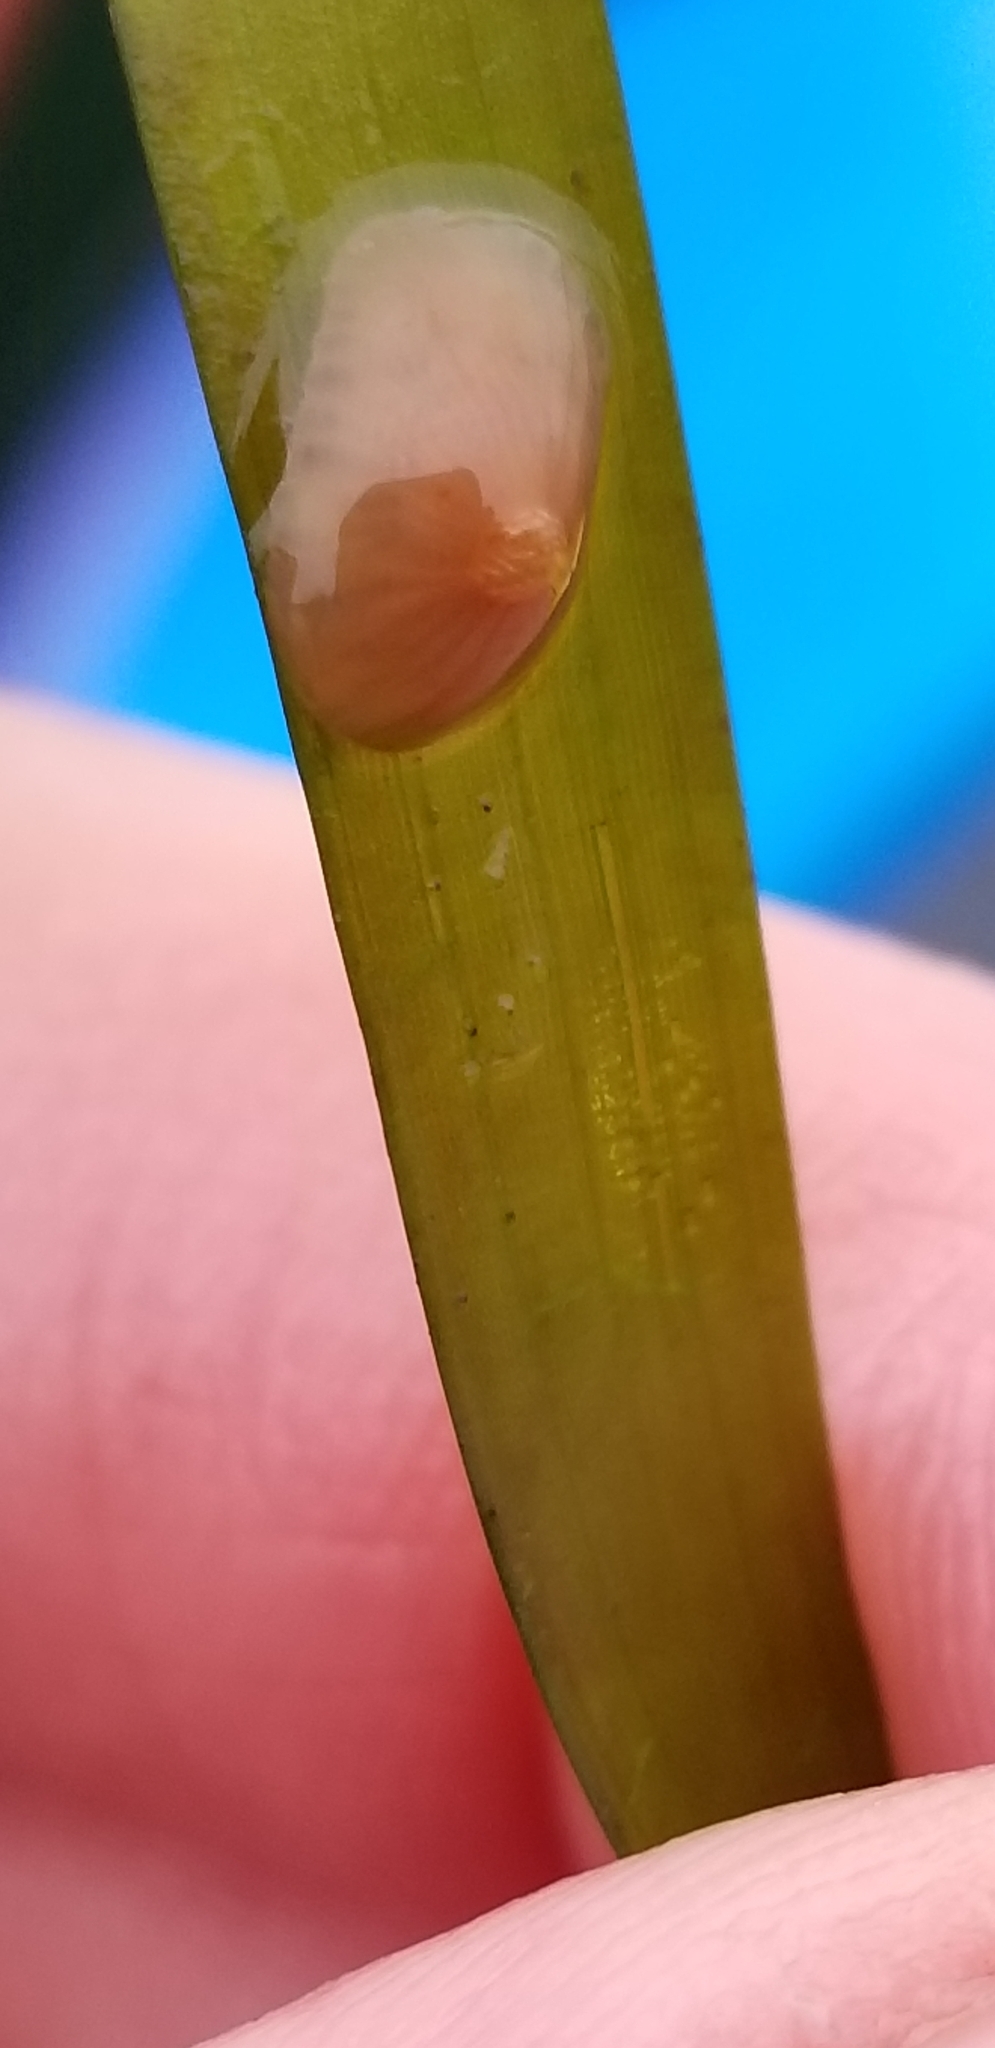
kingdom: Animalia
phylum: Mollusca
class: Gastropoda
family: Lottiidae
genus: Tectura
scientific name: Tectura paleacea
